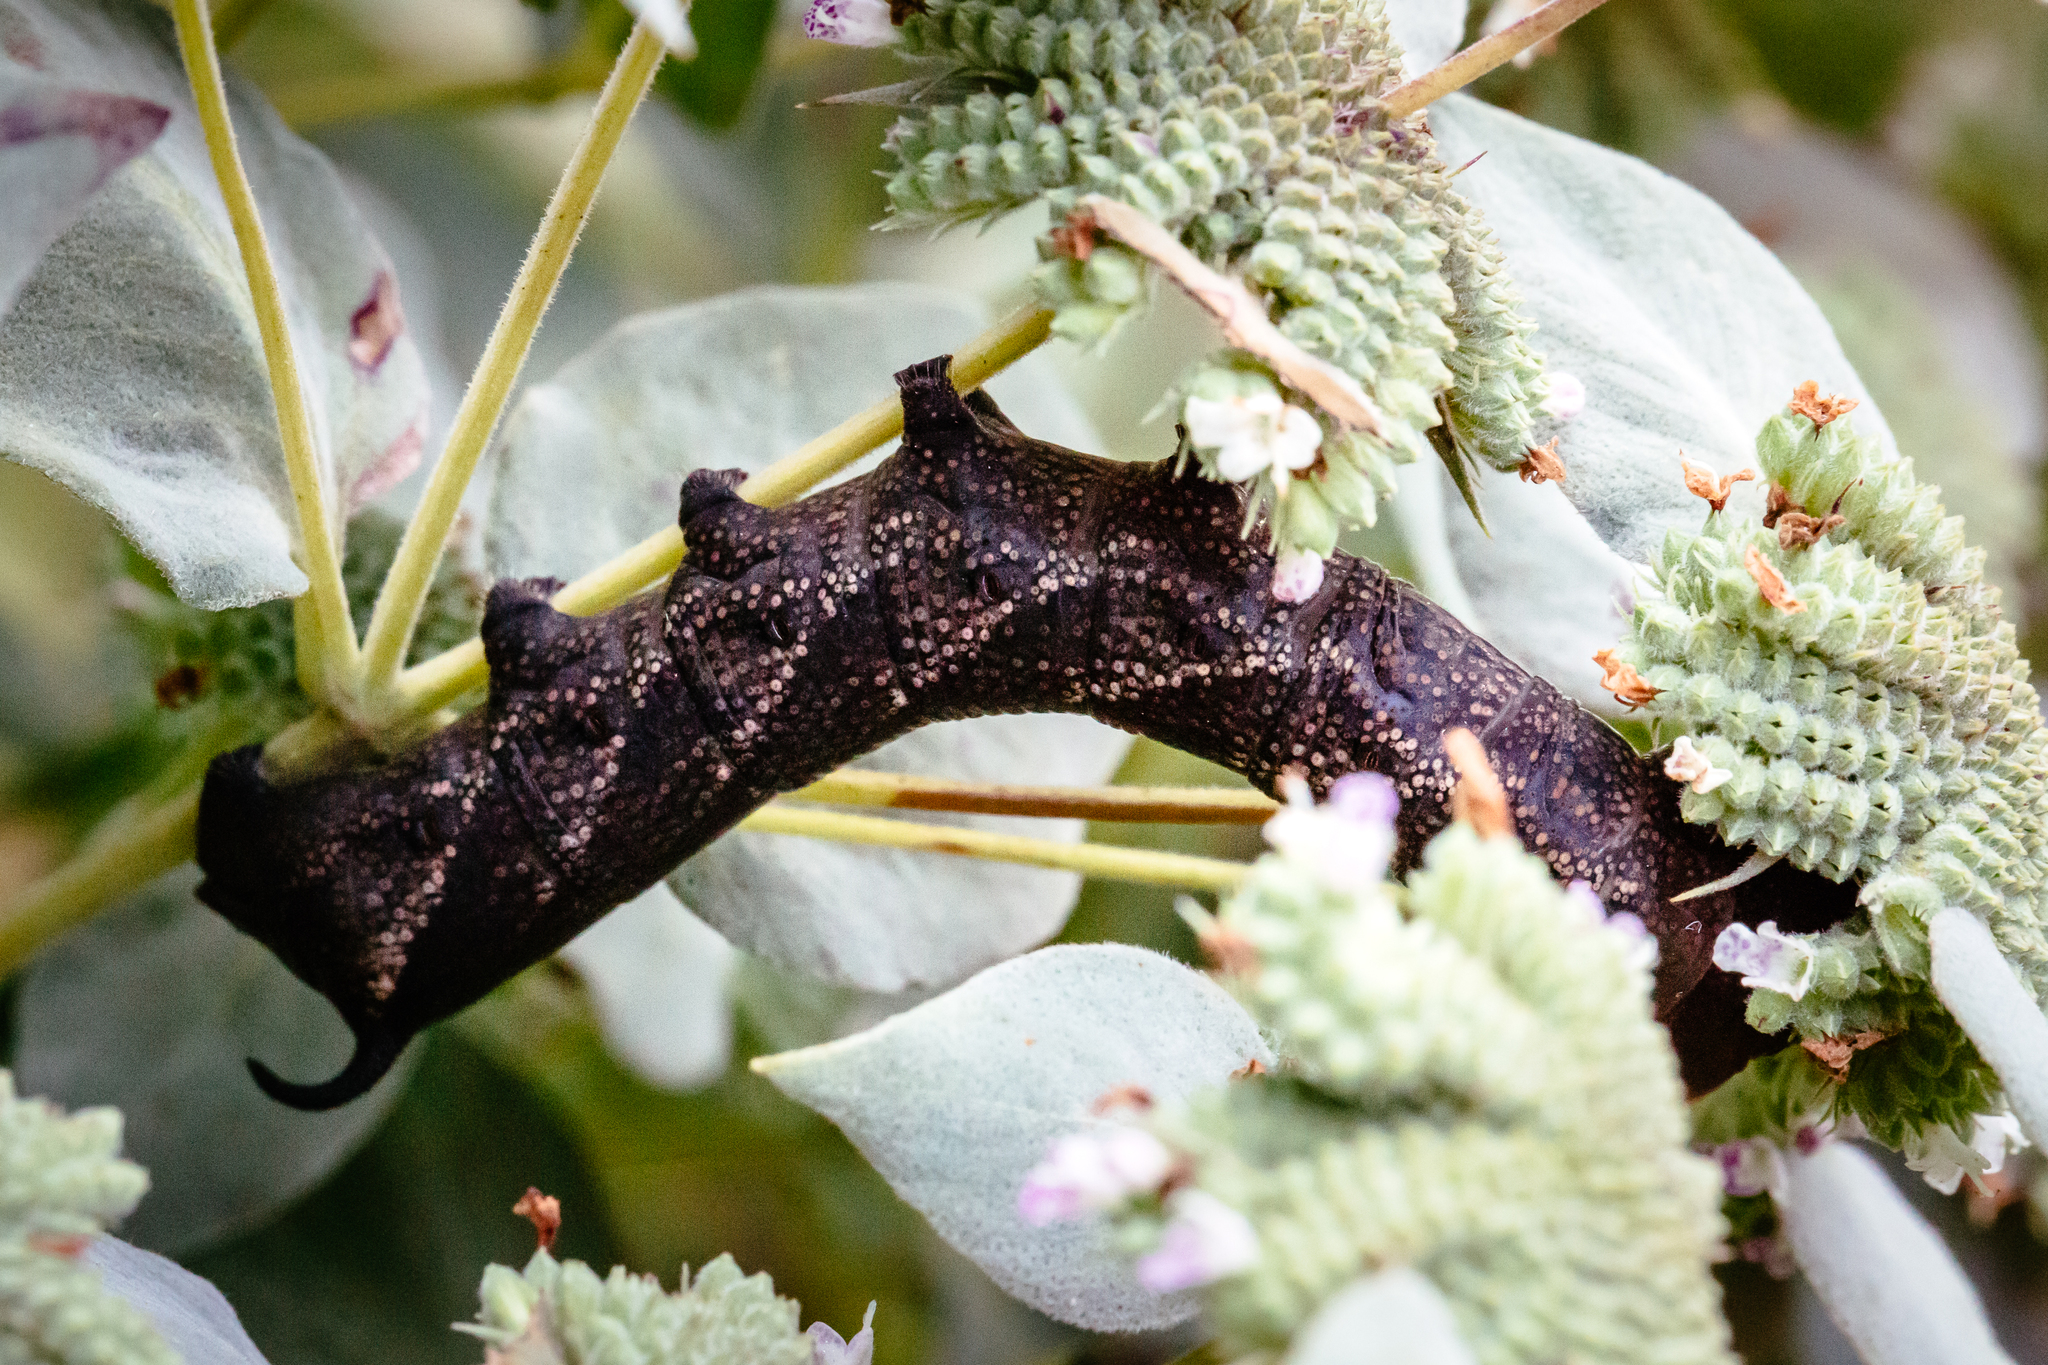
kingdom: Animalia
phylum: Arthropoda
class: Insecta
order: Lepidoptera
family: Sphingidae
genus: Lintneria
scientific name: Lintneria eremitus
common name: Hermit sphinx
